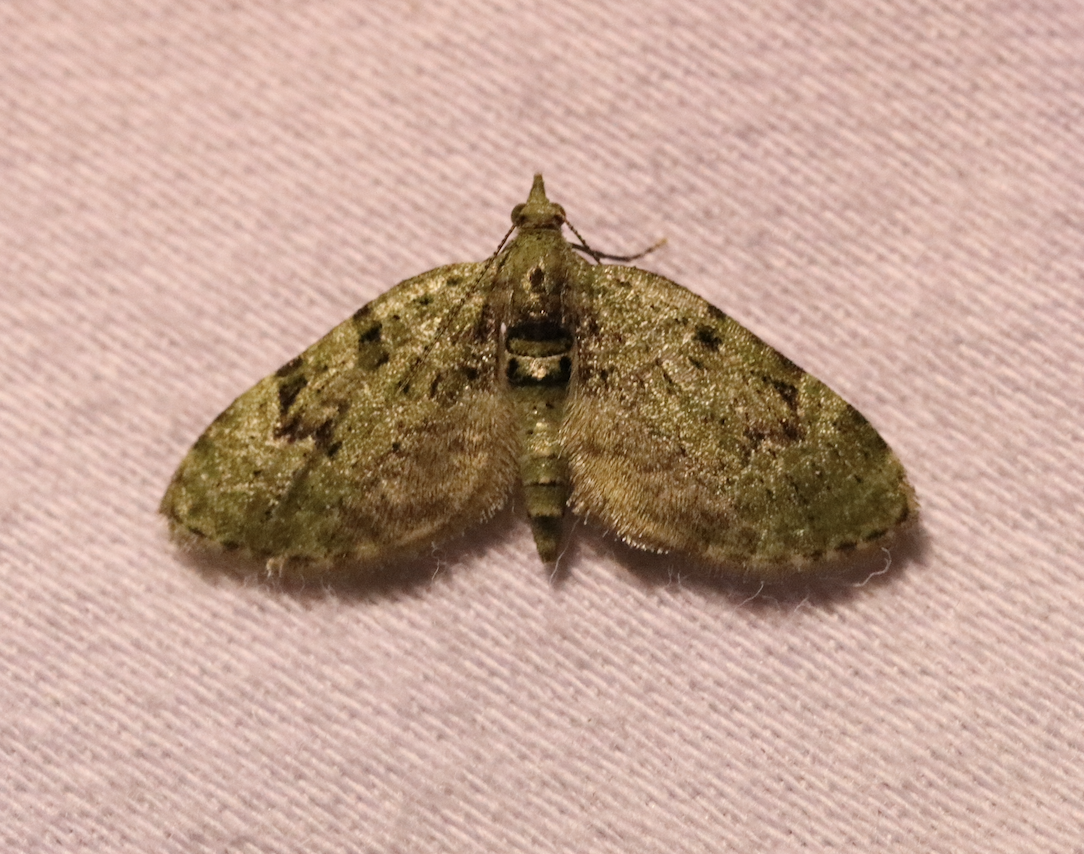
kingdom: Animalia
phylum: Arthropoda
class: Insecta
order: Lepidoptera
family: Geometridae
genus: Chloroclystis
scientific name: Chloroclystis v-ata
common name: V-pug
